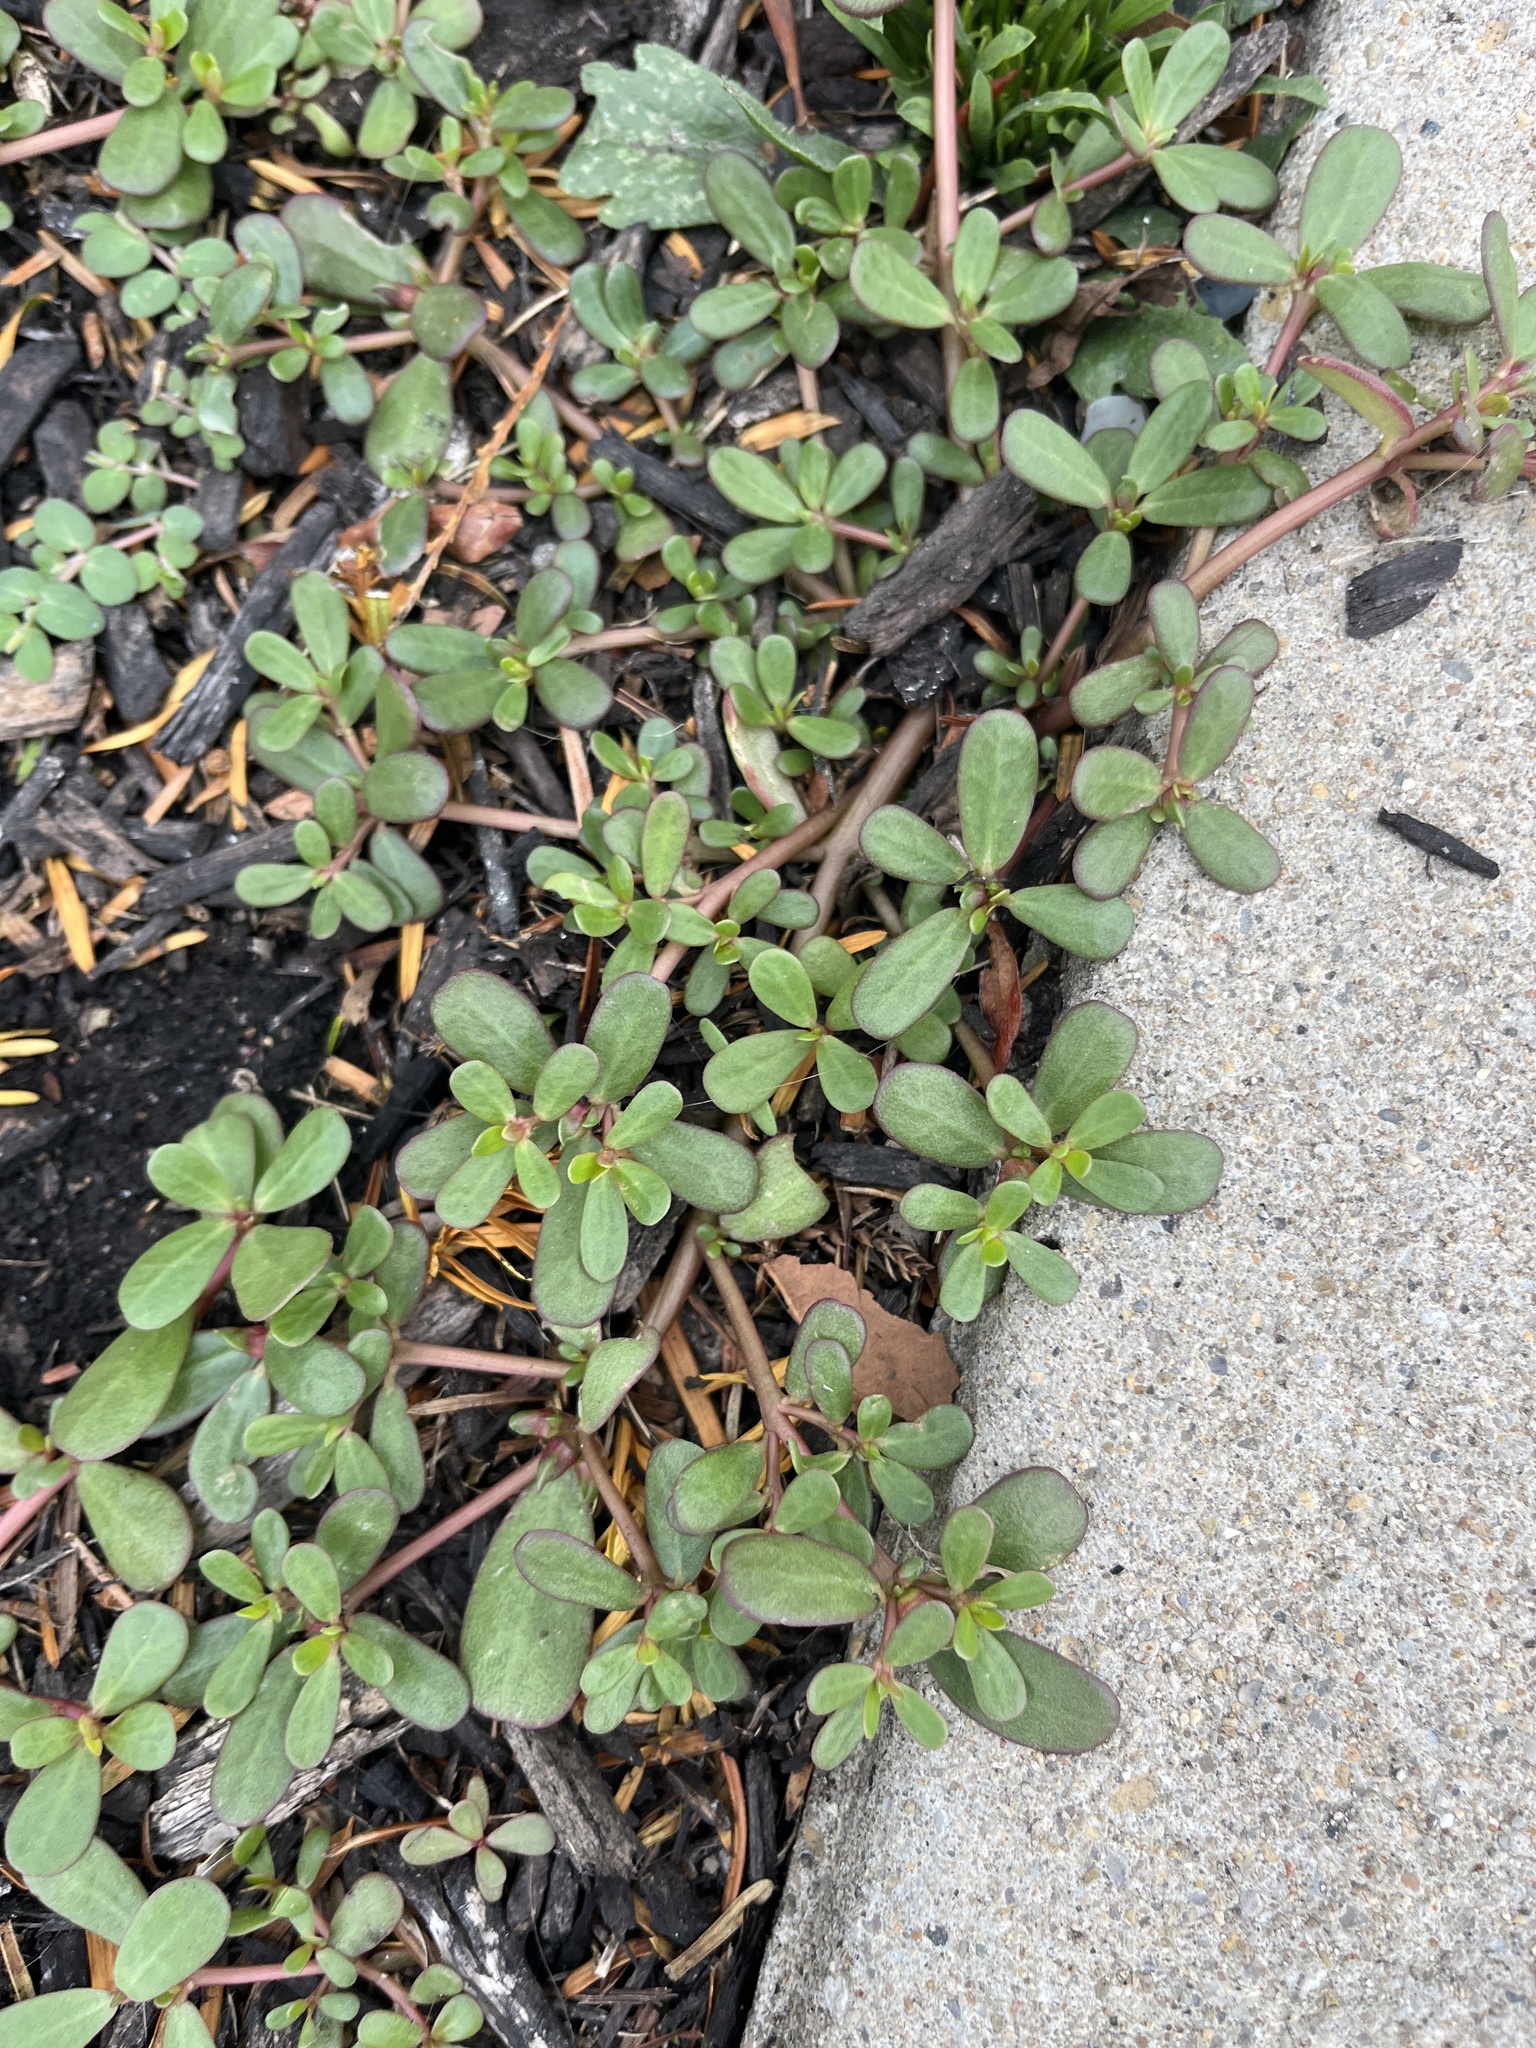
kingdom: Plantae
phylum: Tracheophyta
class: Magnoliopsida
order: Caryophyllales
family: Portulacaceae
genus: Portulaca
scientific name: Portulaca oleracea
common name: Common purslane
